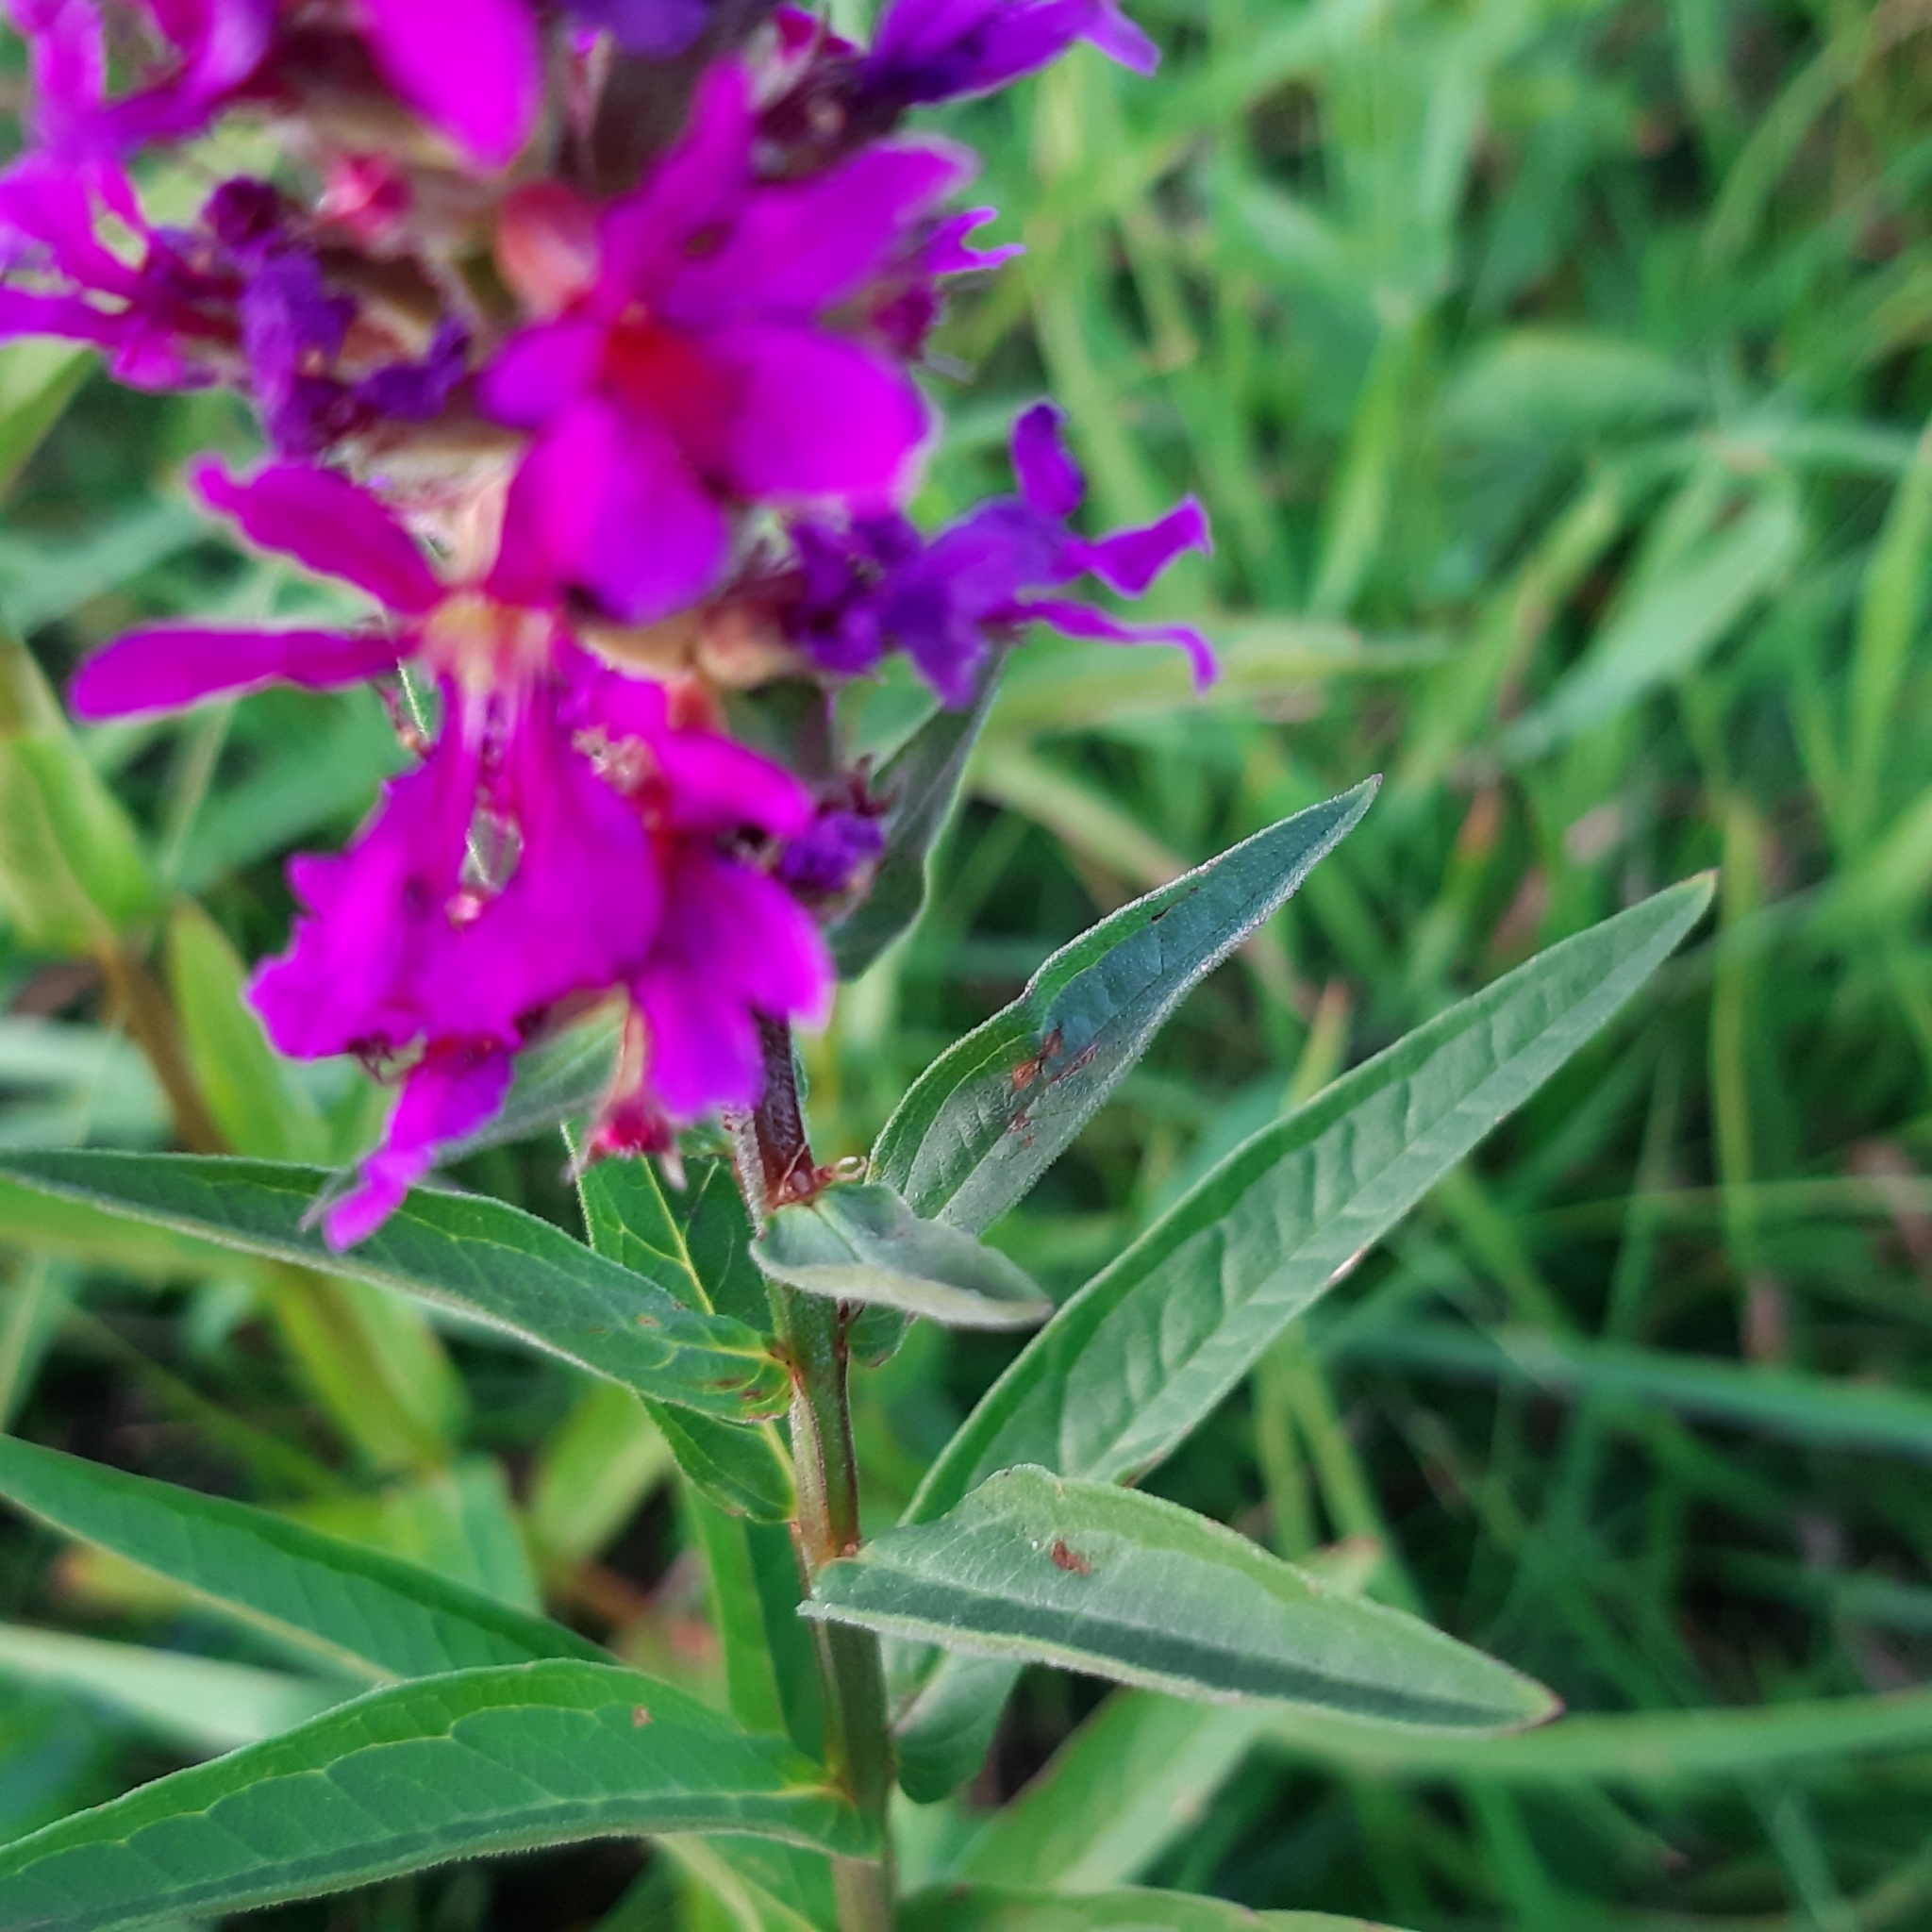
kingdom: Plantae
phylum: Tracheophyta
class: Magnoliopsida
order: Myrtales
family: Lythraceae
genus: Lythrum
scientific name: Lythrum salicaria
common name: Purple loosestrife
